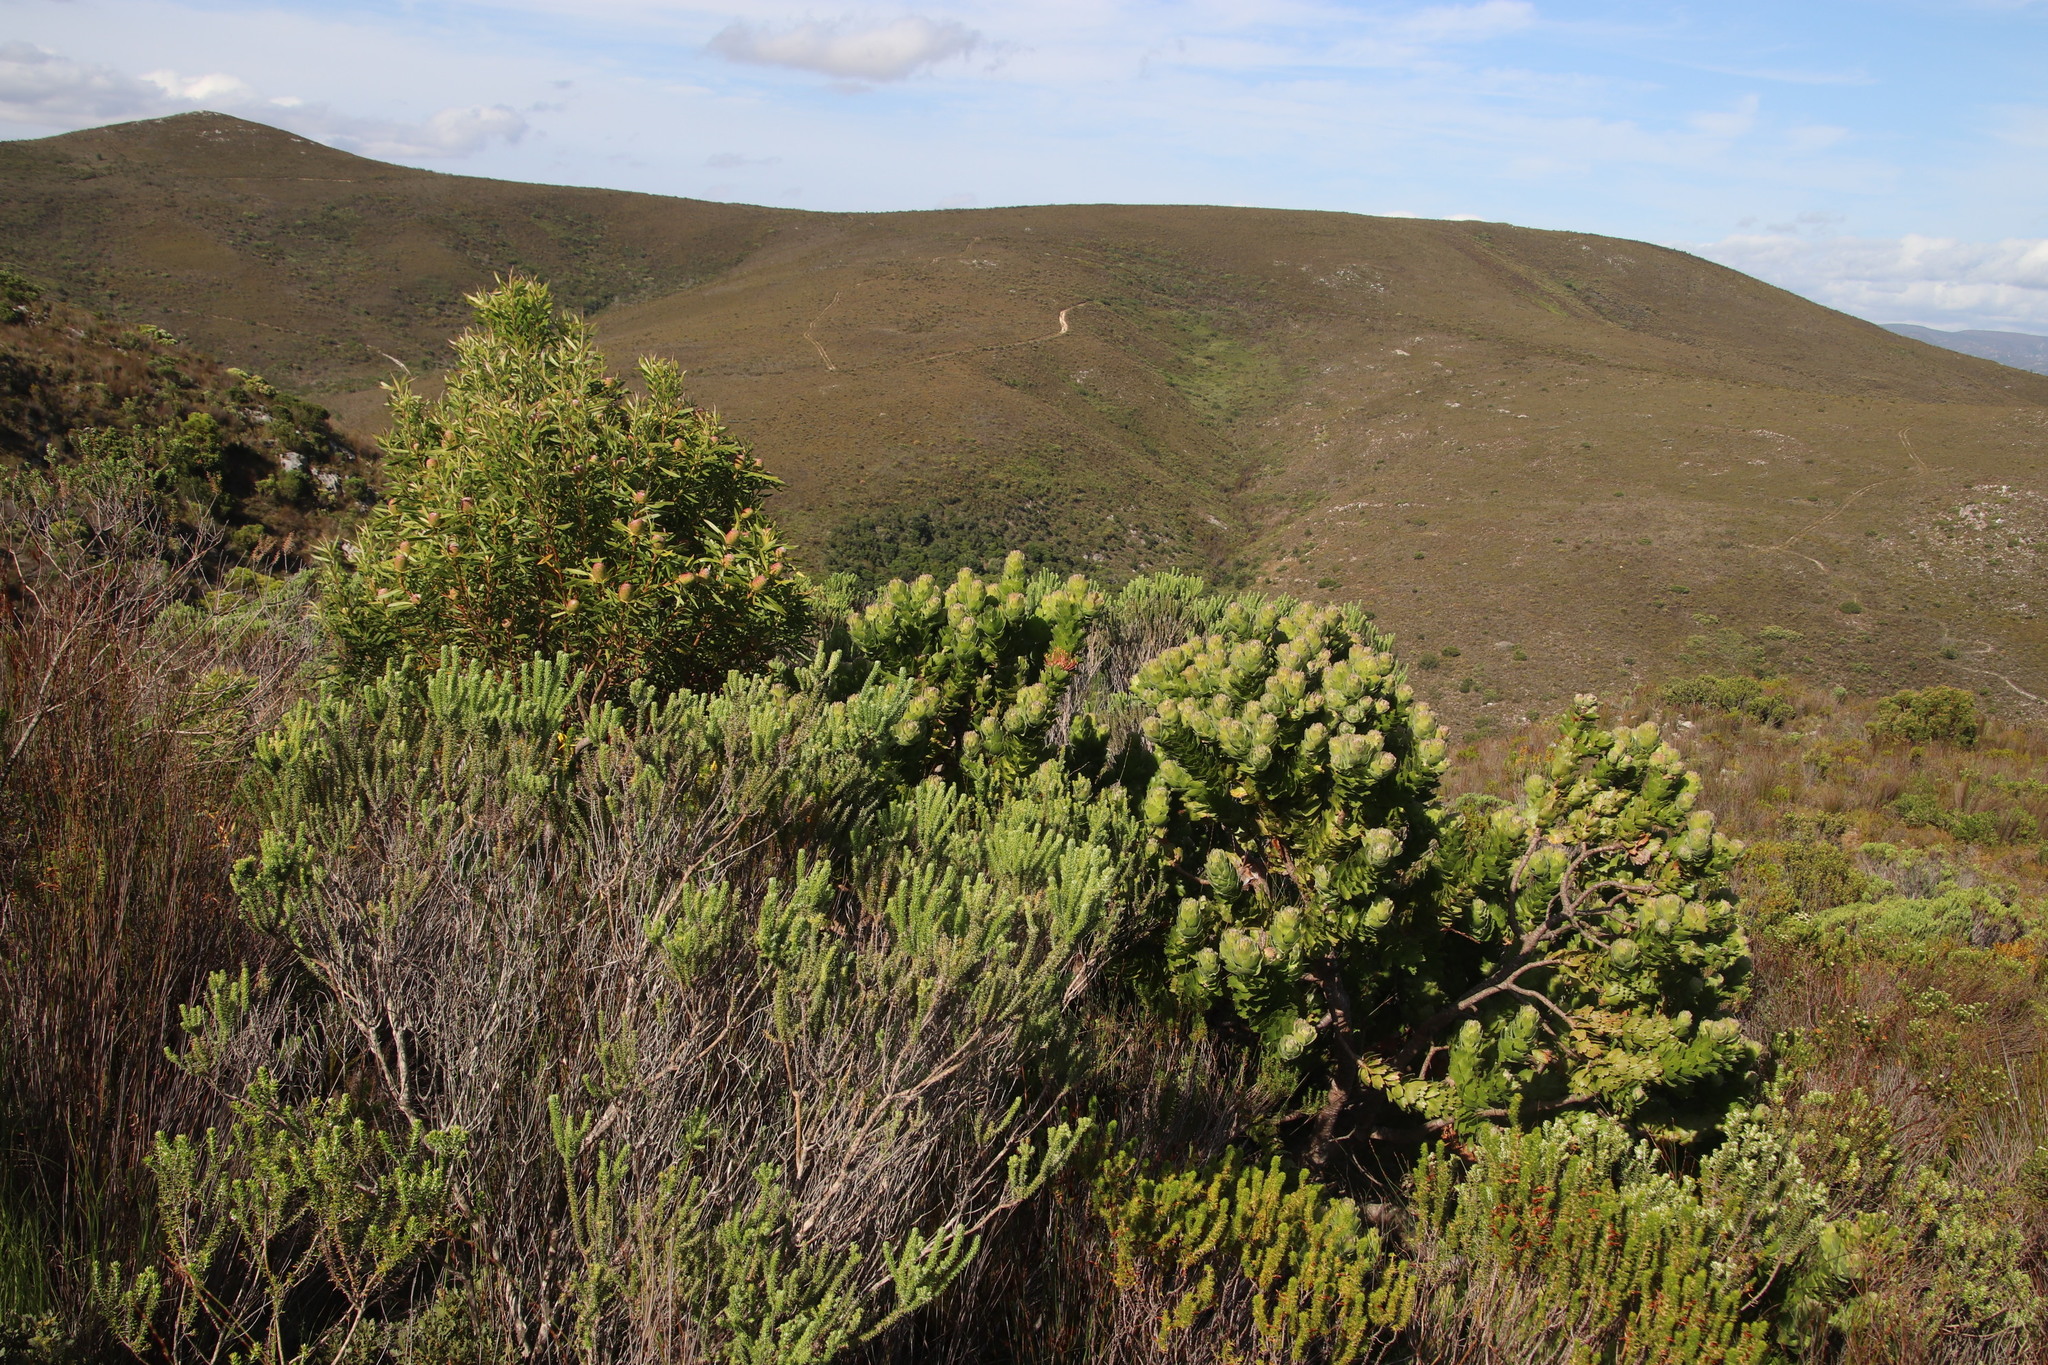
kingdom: Plantae
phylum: Tracheophyta
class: Magnoliopsida
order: Proteales
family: Proteaceae
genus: Leucospermum
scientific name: Leucospermum patersonii
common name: False tree pincushion
